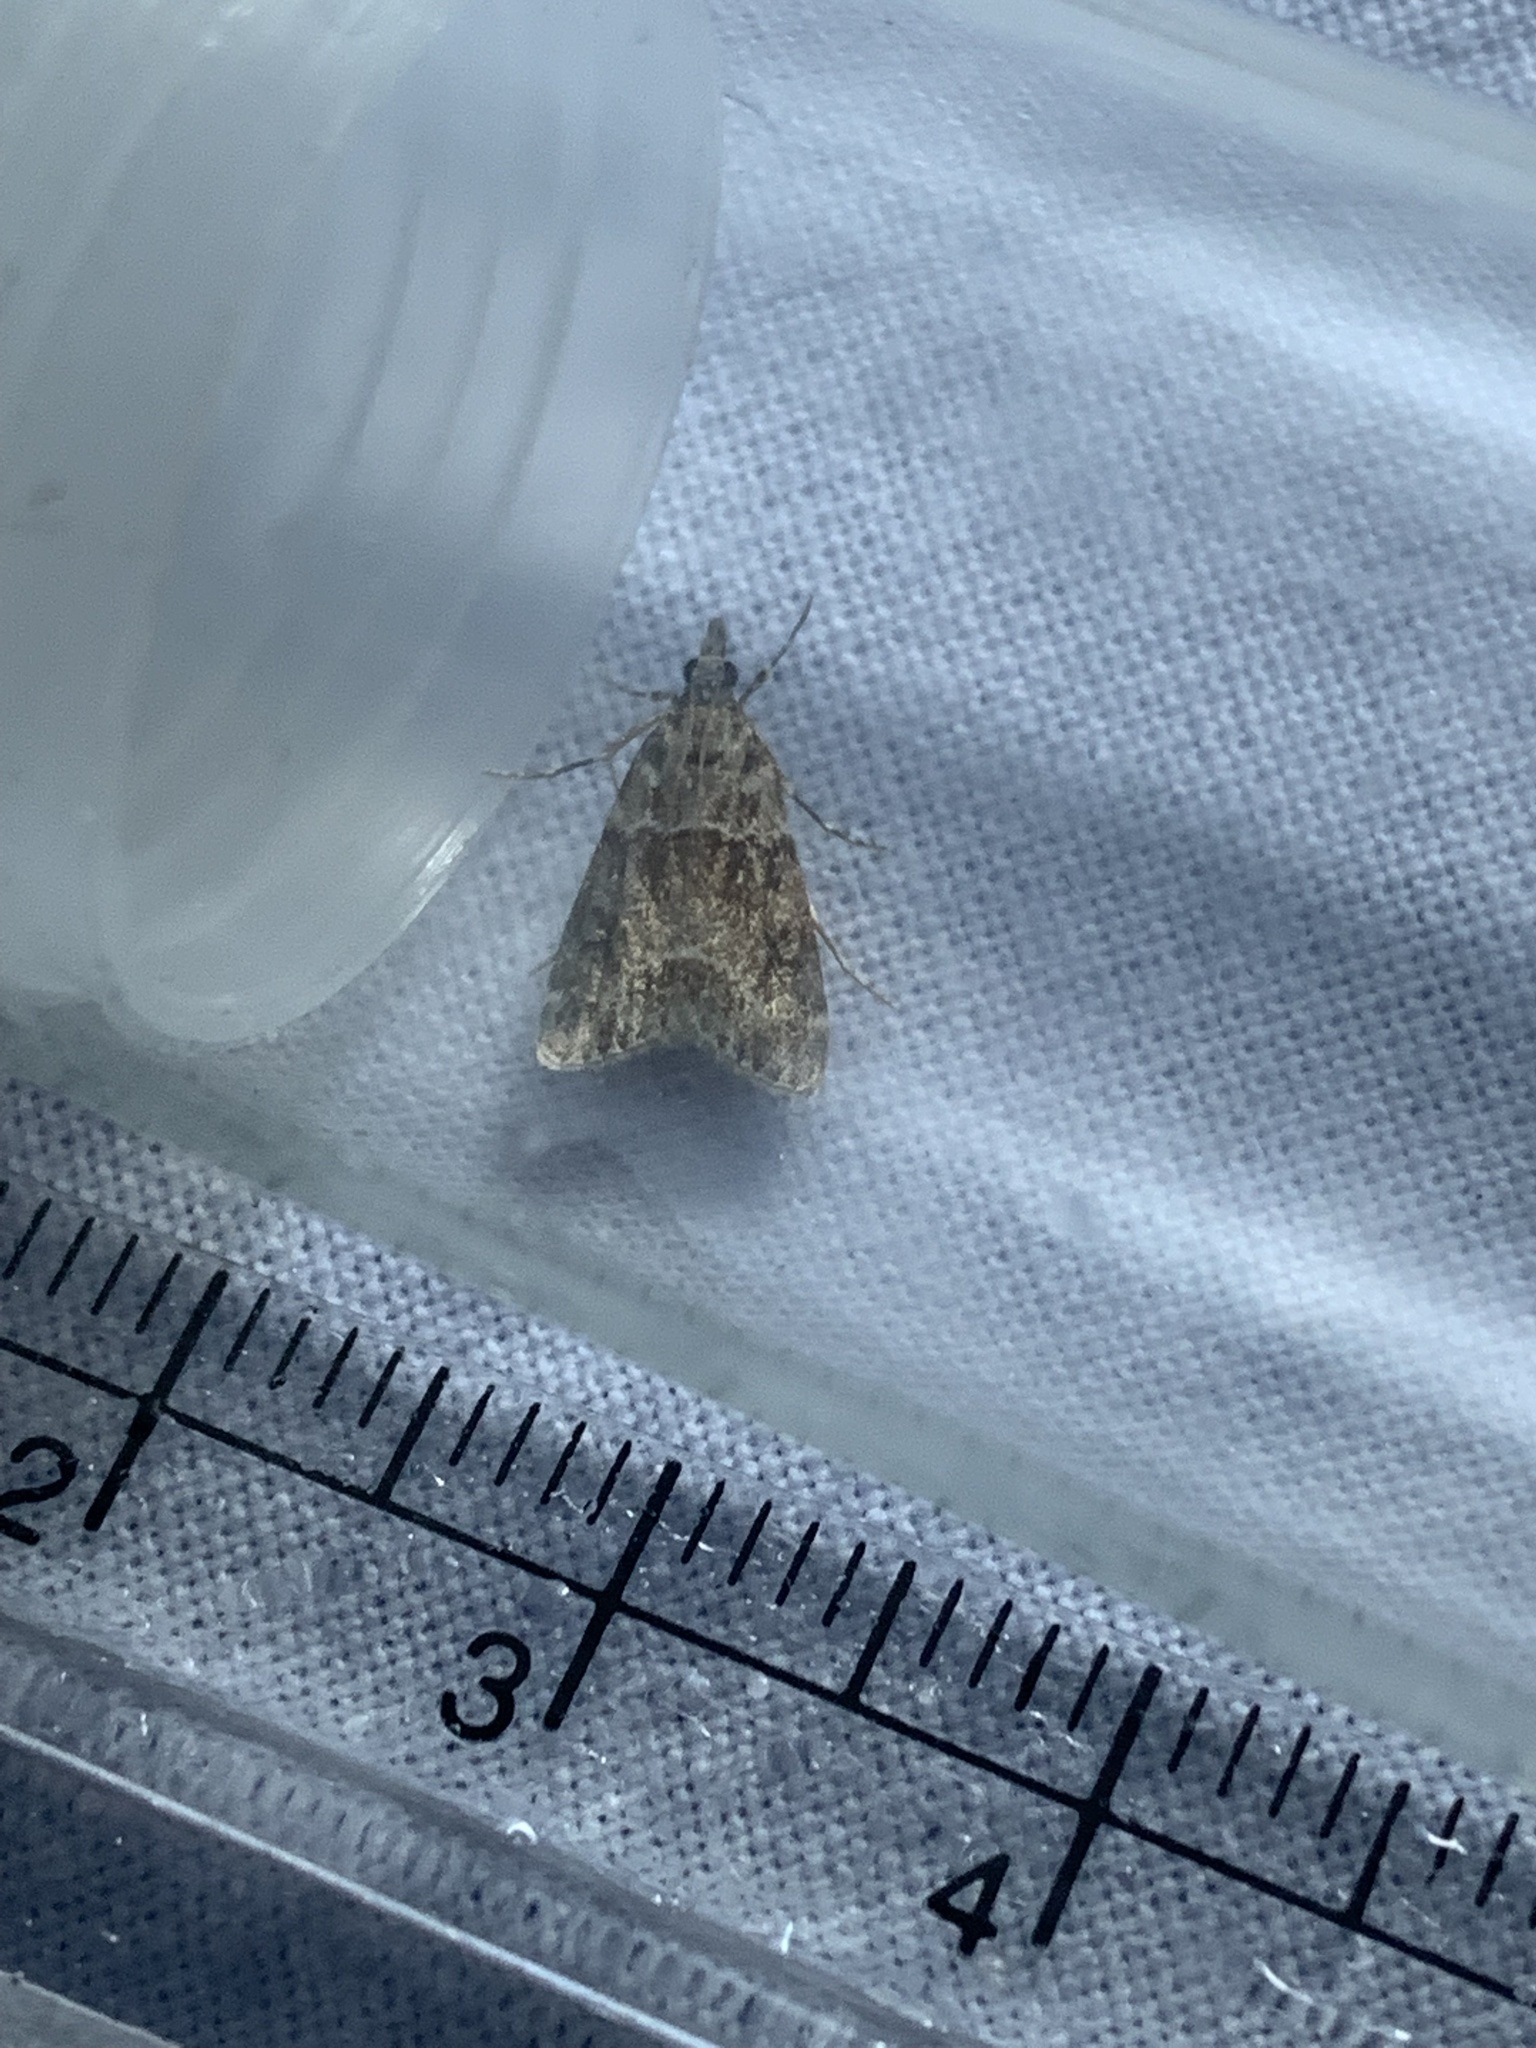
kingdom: Animalia
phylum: Arthropoda
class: Insecta
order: Lepidoptera
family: Crambidae
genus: Eudonia
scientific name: Eudonia mercurella
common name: Small grey
